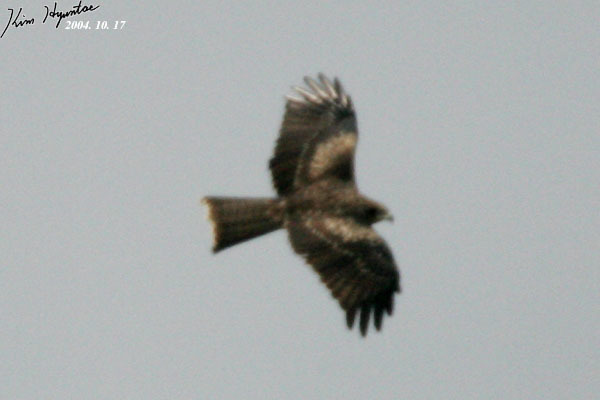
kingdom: Animalia
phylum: Chordata
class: Aves
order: Accipitriformes
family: Accipitridae
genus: Milvus
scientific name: Milvus migrans
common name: Black kite
